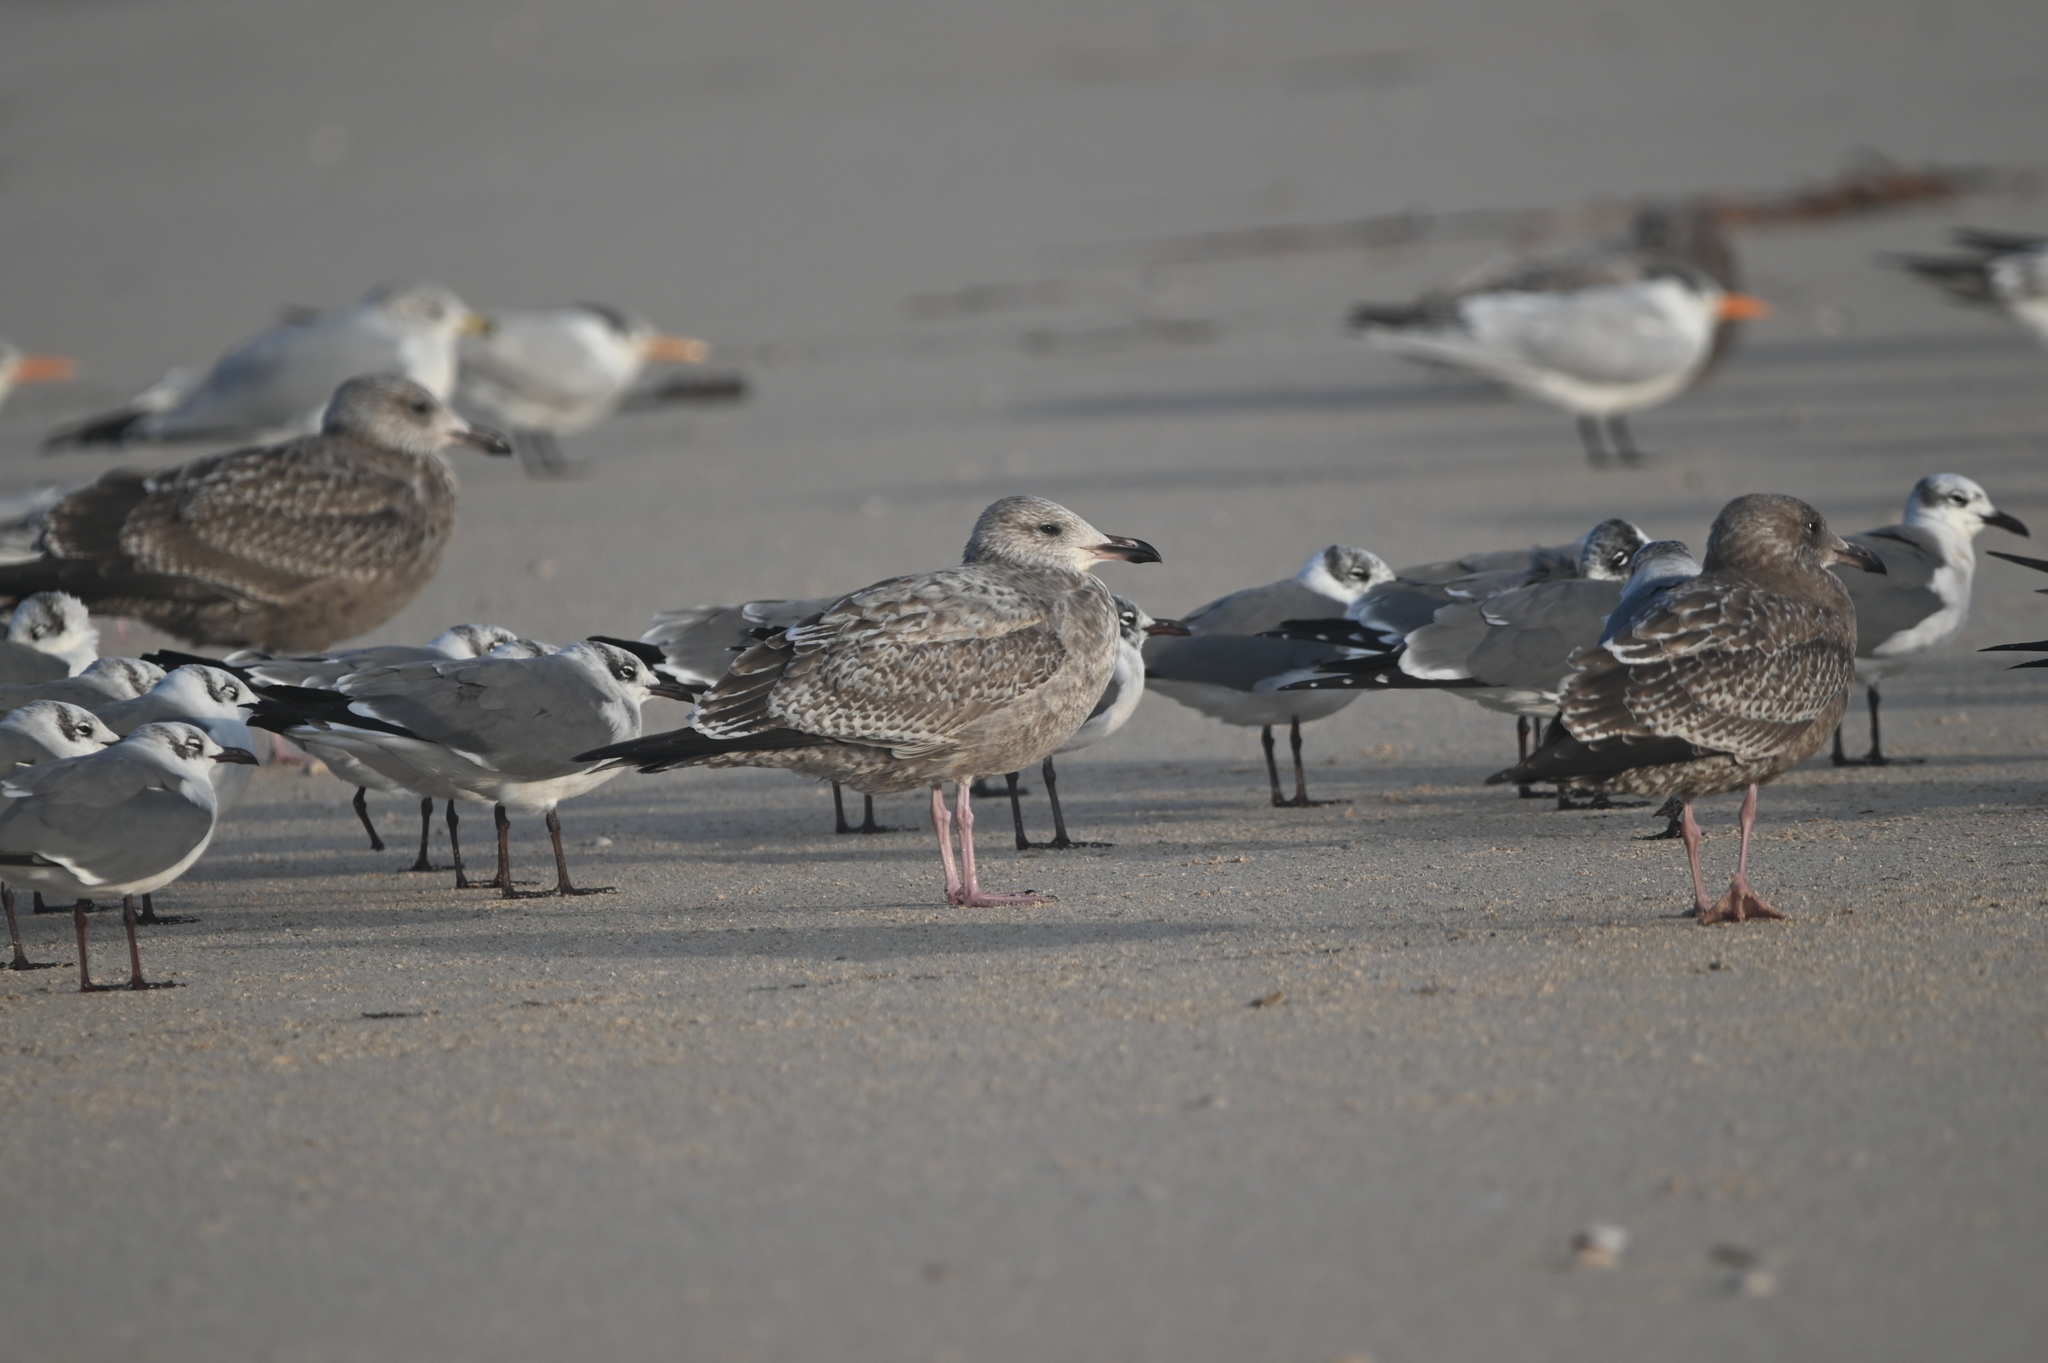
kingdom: Animalia
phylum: Chordata
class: Aves
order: Charadriiformes
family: Laridae
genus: Larus
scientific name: Larus argentatus
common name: Herring gull
